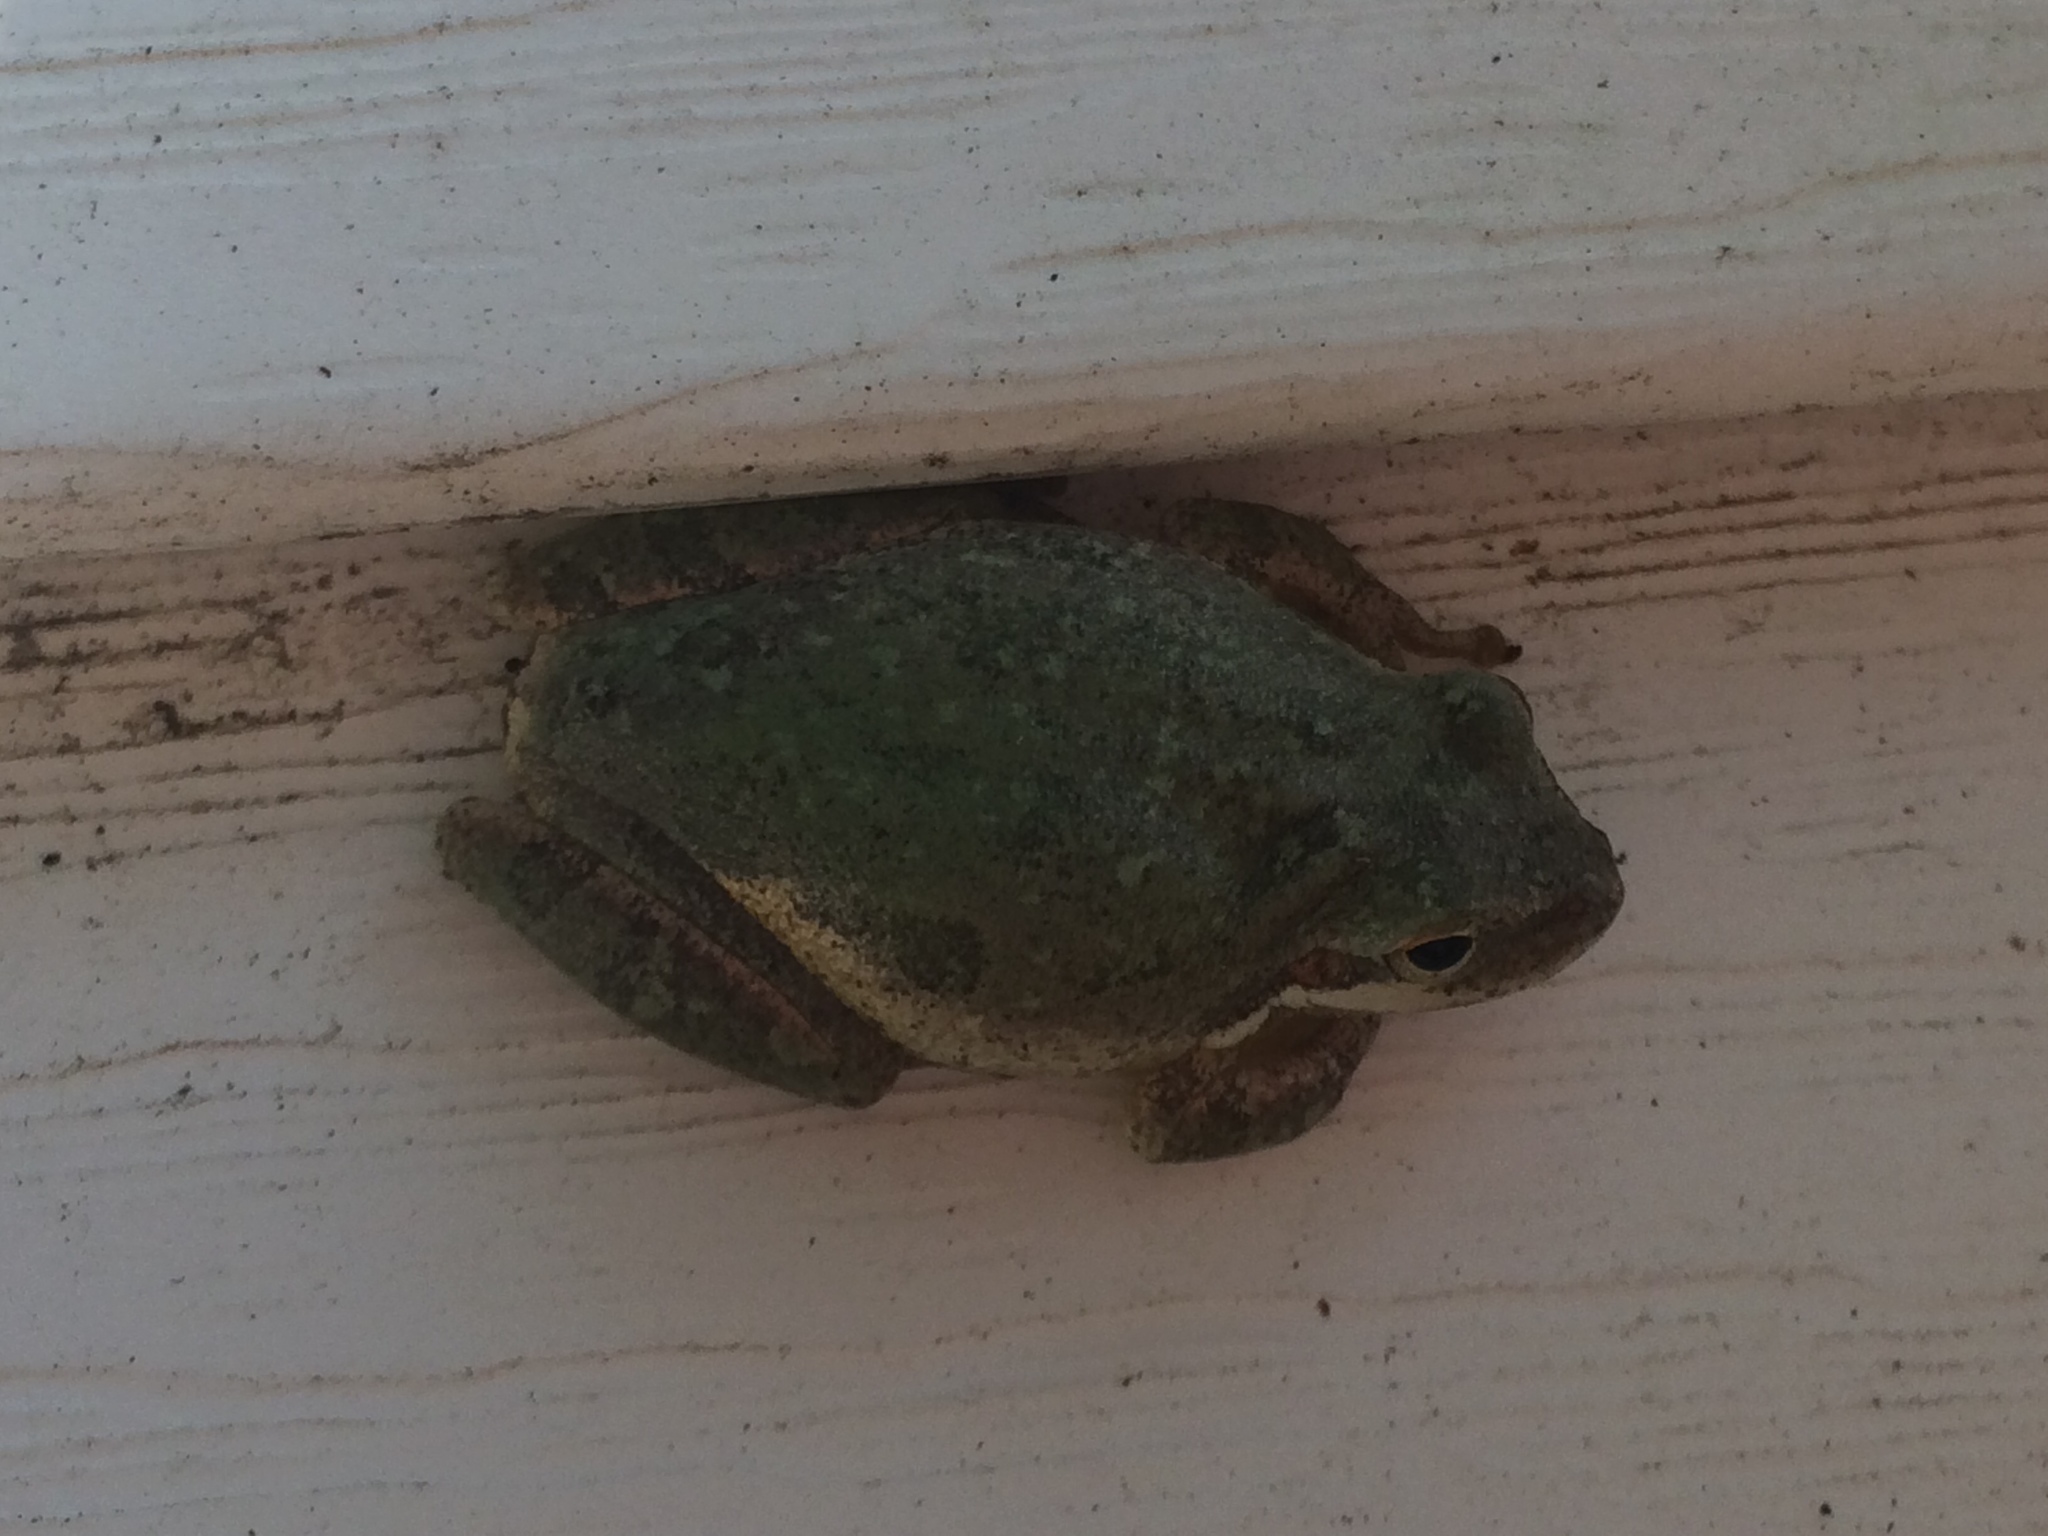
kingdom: Animalia
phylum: Chordata
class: Amphibia
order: Anura
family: Hylidae
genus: Dryophytes
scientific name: Dryophytes squirellus
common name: Squirrel treefrog
